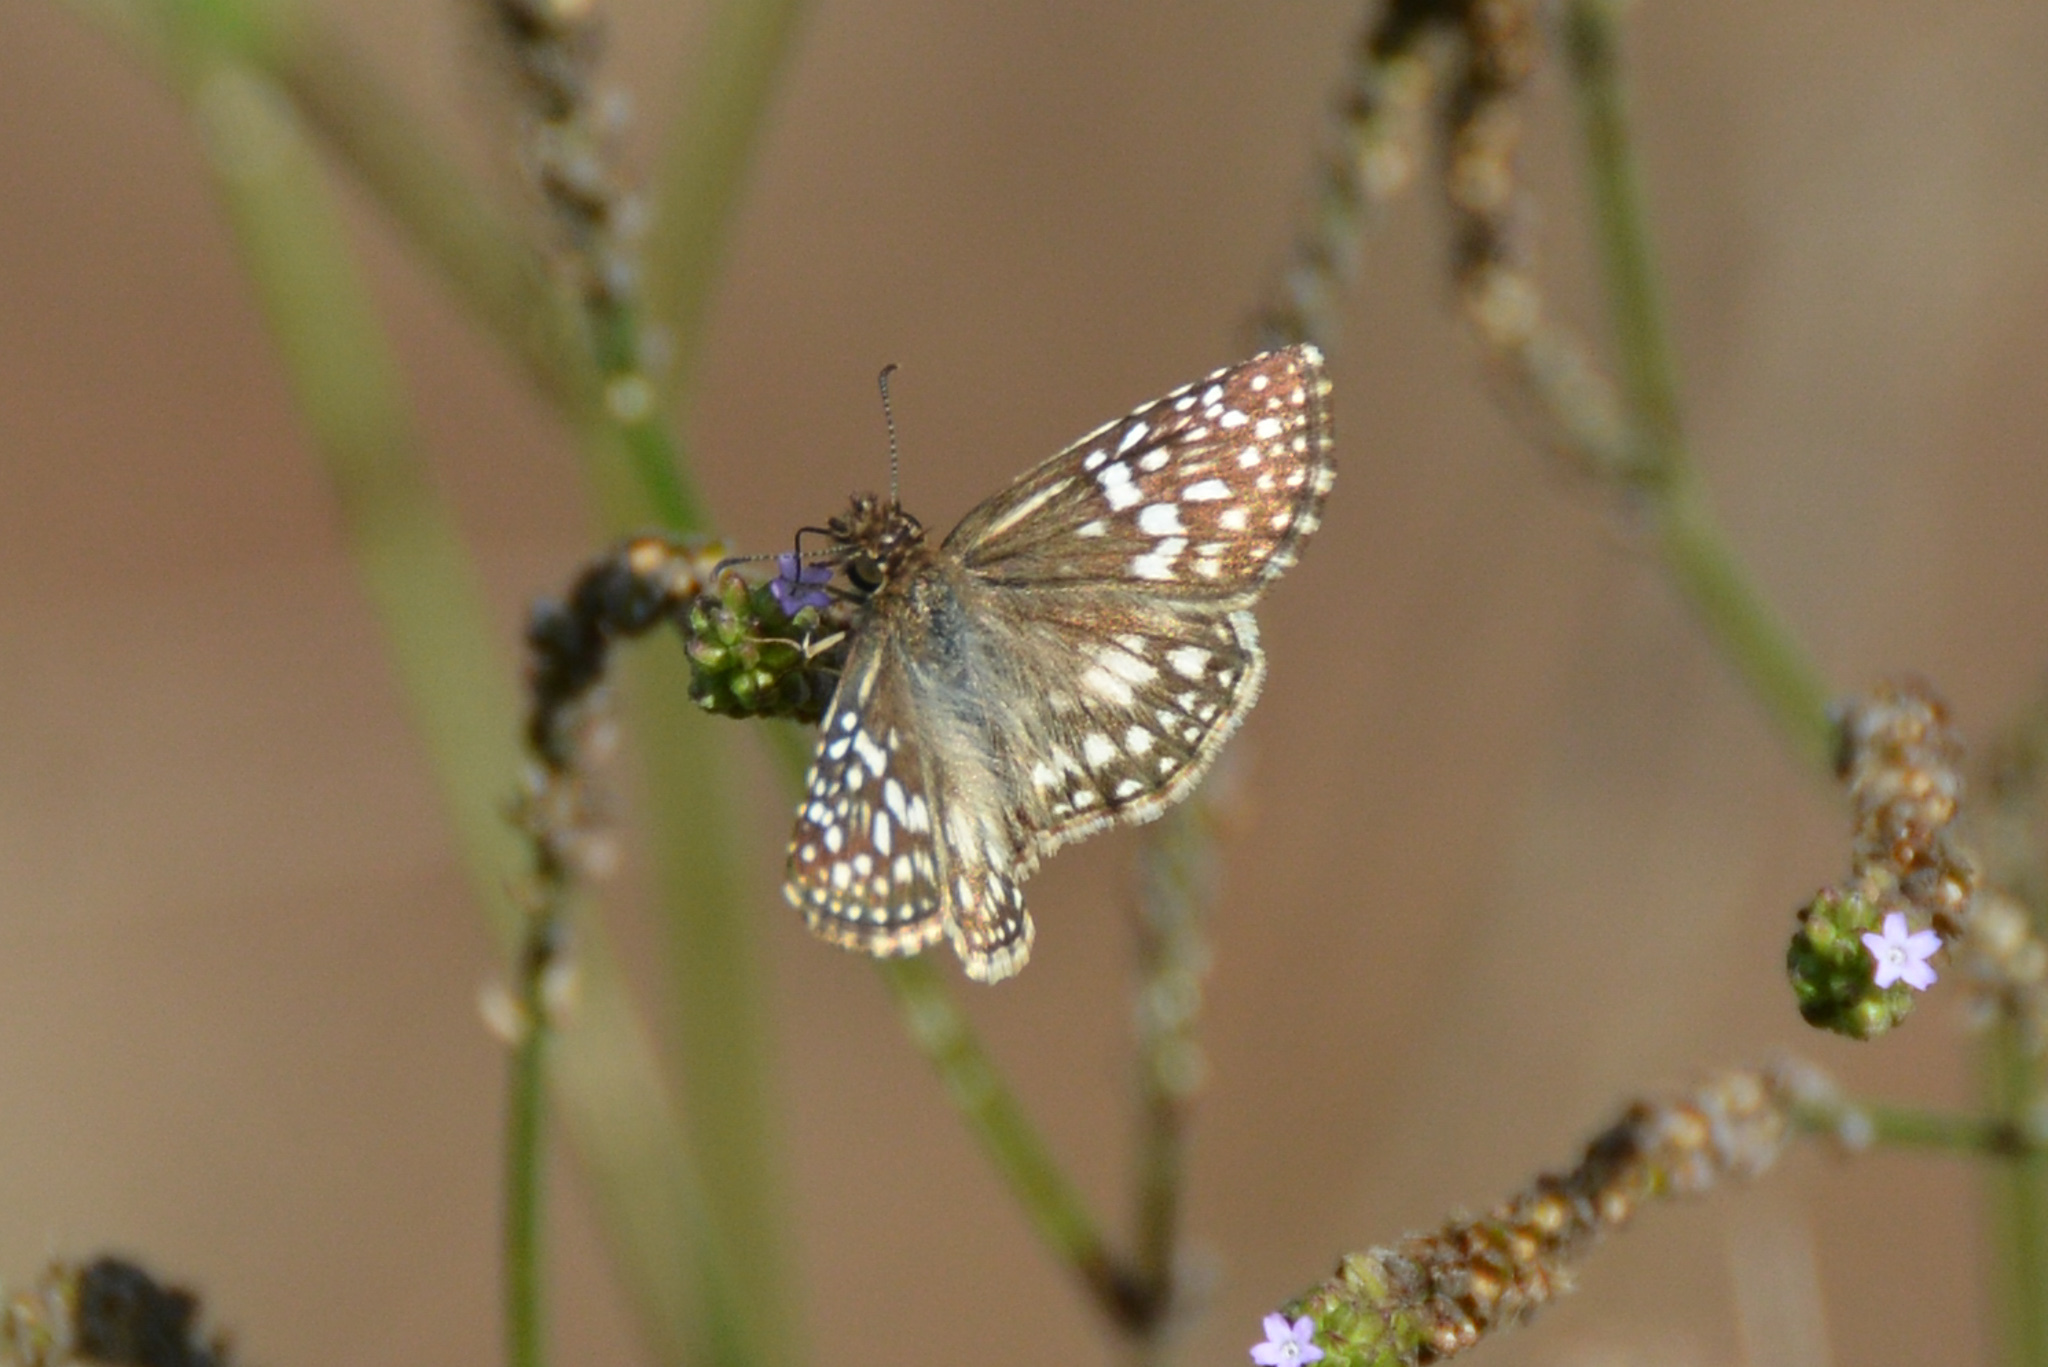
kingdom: Animalia
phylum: Arthropoda
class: Insecta
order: Lepidoptera
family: Hesperiidae
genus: Pyrgus
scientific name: Pyrgus oileus
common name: Tropical checkered-skipper
